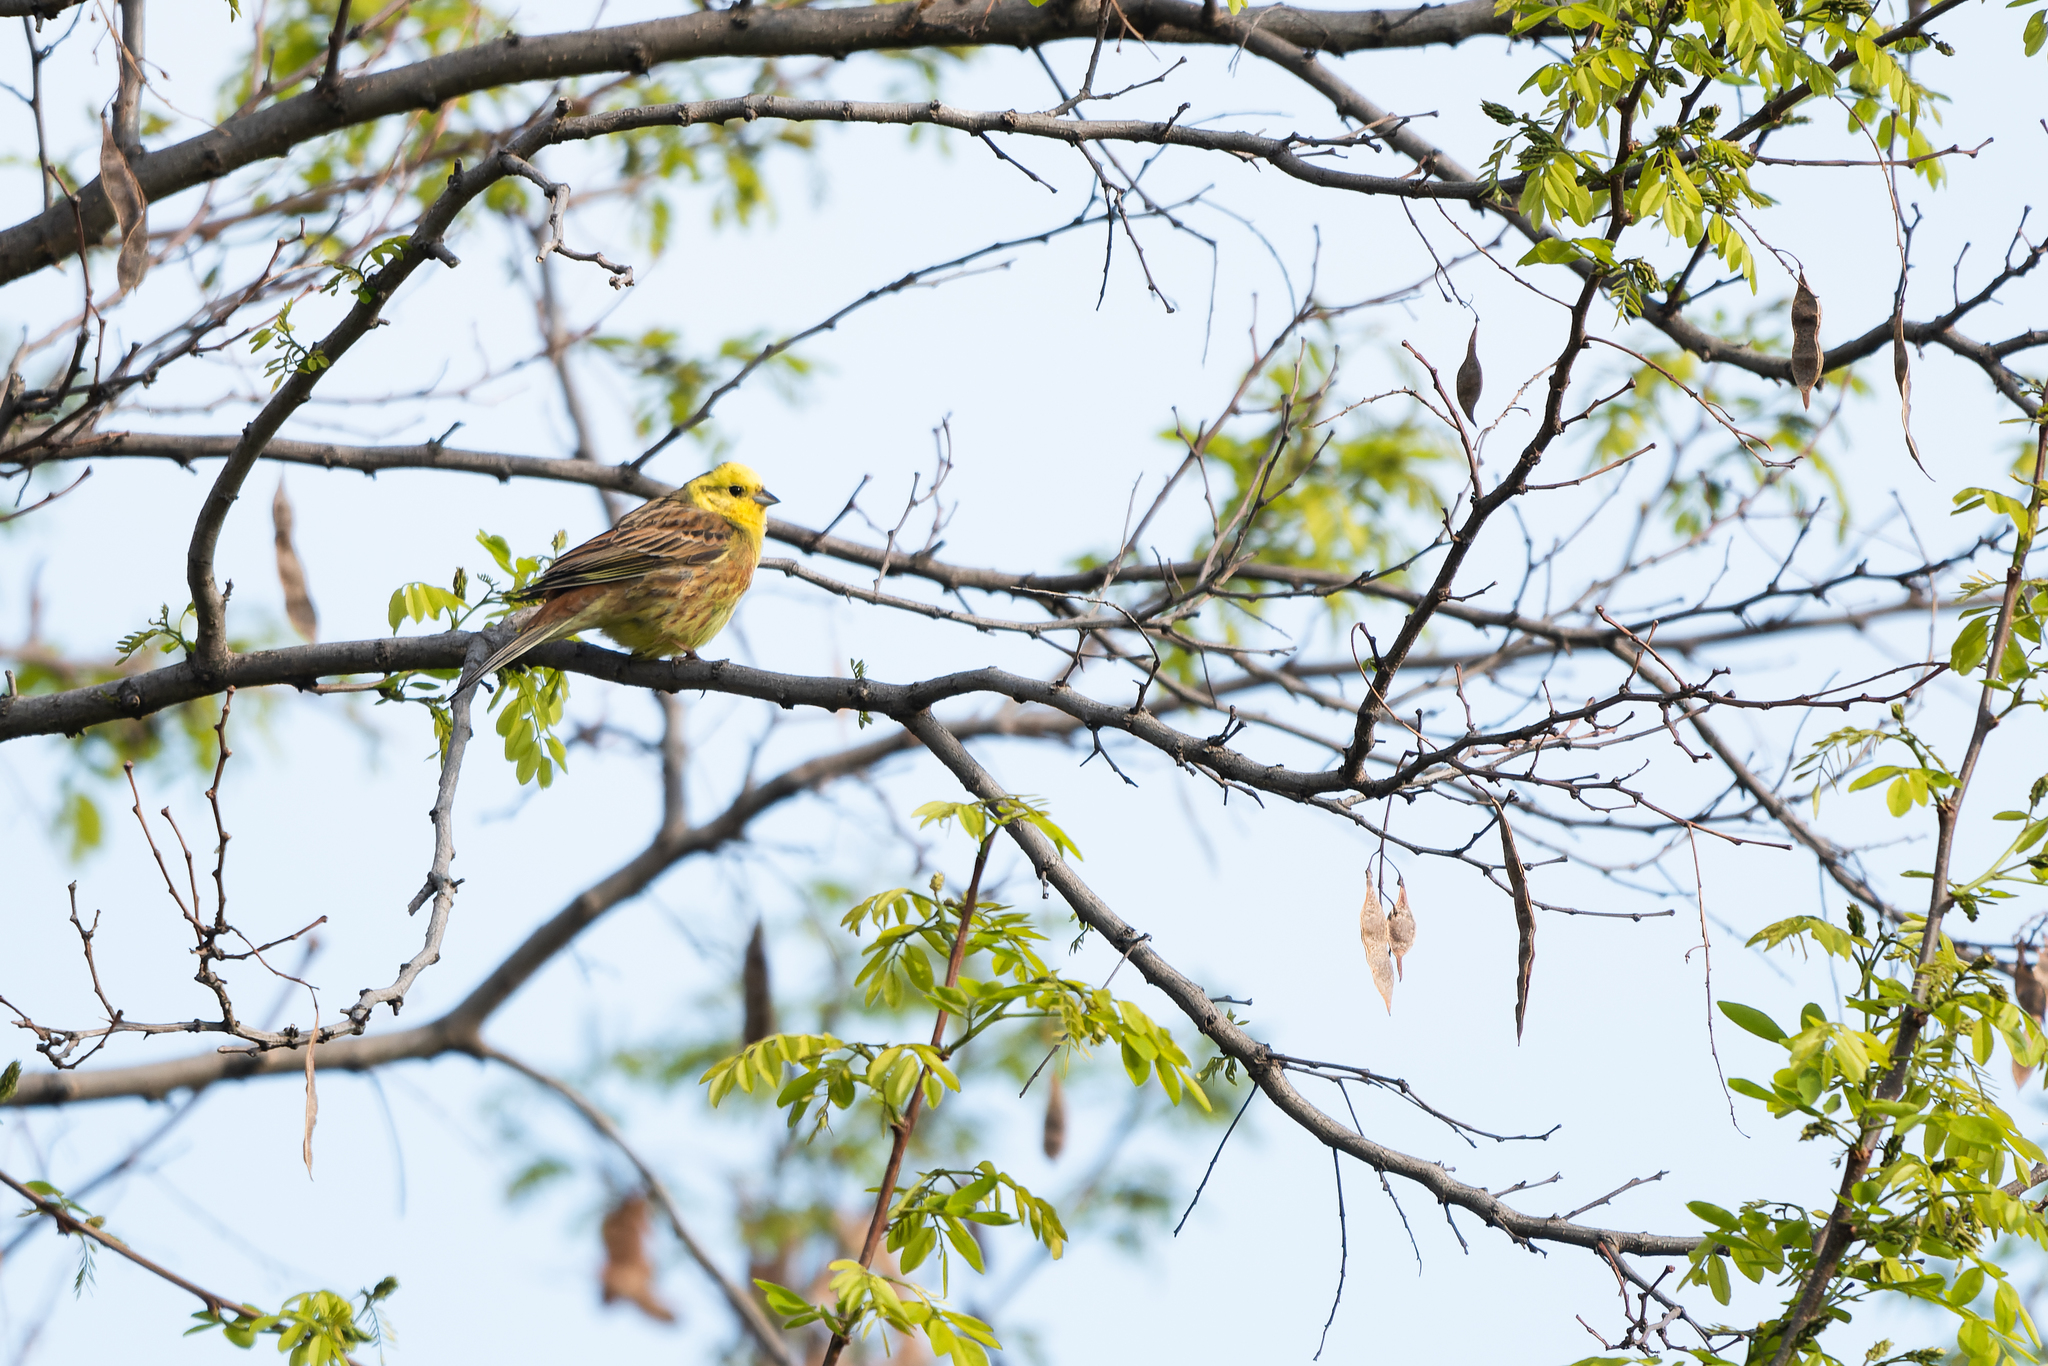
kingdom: Animalia
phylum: Chordata
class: Aves
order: Passeriformes
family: Emberizidae
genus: Emberiza
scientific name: Emberiza citrinella
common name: Yellowhammer
